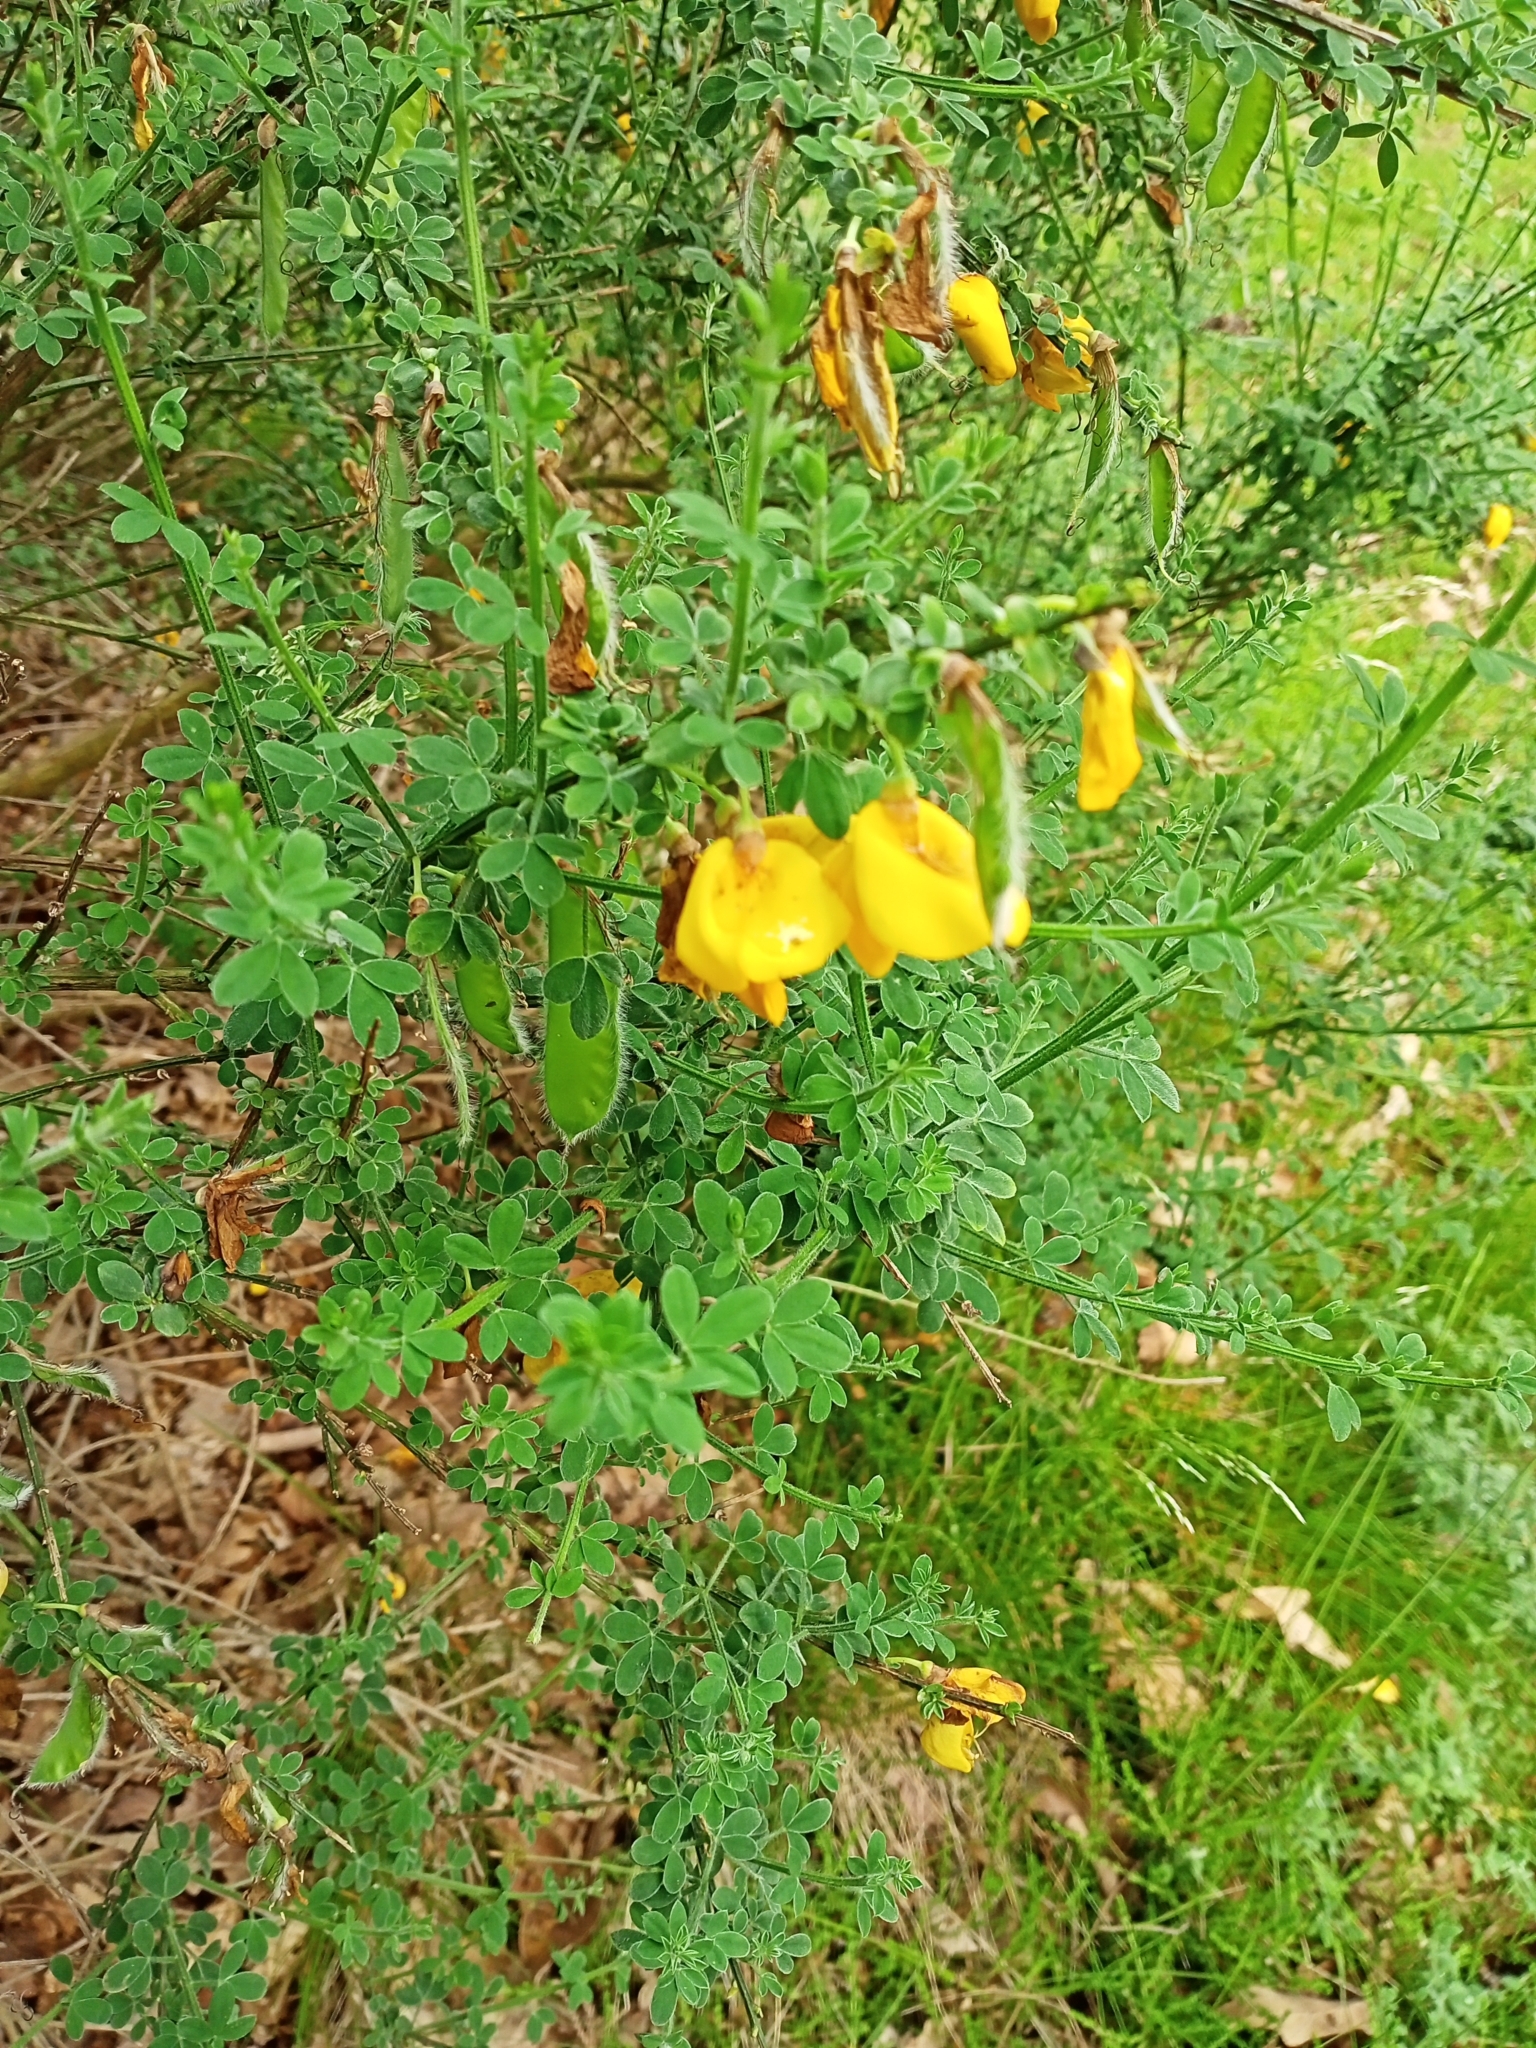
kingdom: Plantae
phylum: Tracheophyta
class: Magnoliopsida
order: Fabales
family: Fabaceae
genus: Cytisus
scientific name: Cytisus scoparius
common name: Scotch broom
